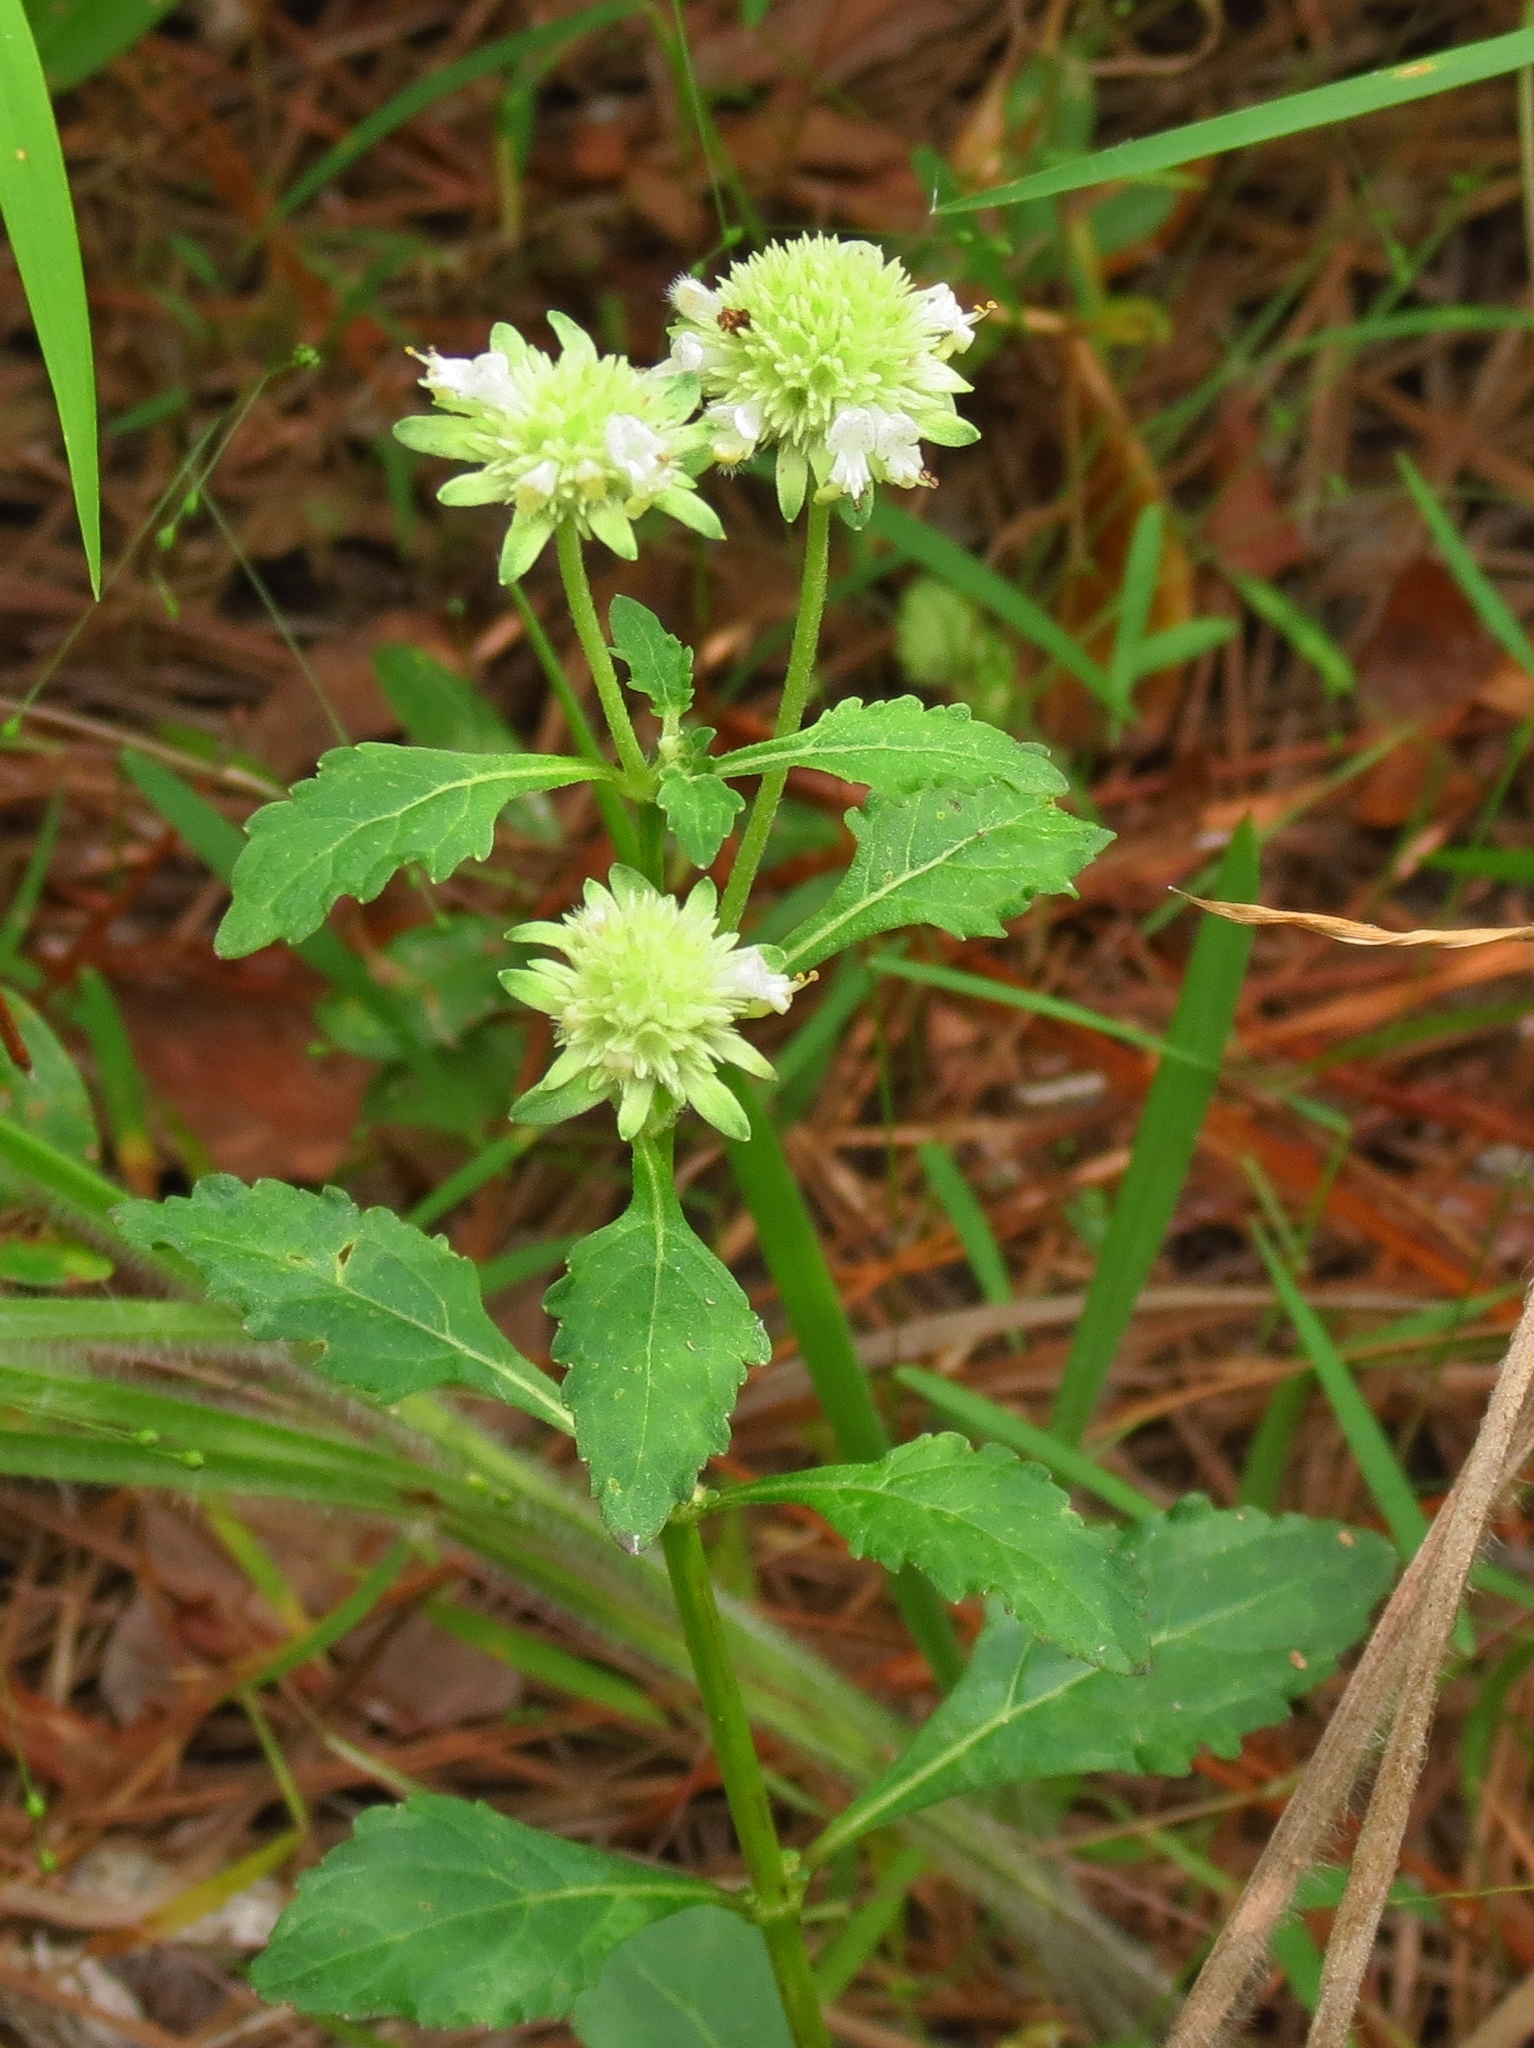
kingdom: Plantae
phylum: Tracheophyta
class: Magnoliopsida
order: Lamiales
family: Lamiaceae
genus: Hyptis
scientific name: Hyptis alata
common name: Cluster bush-mint
